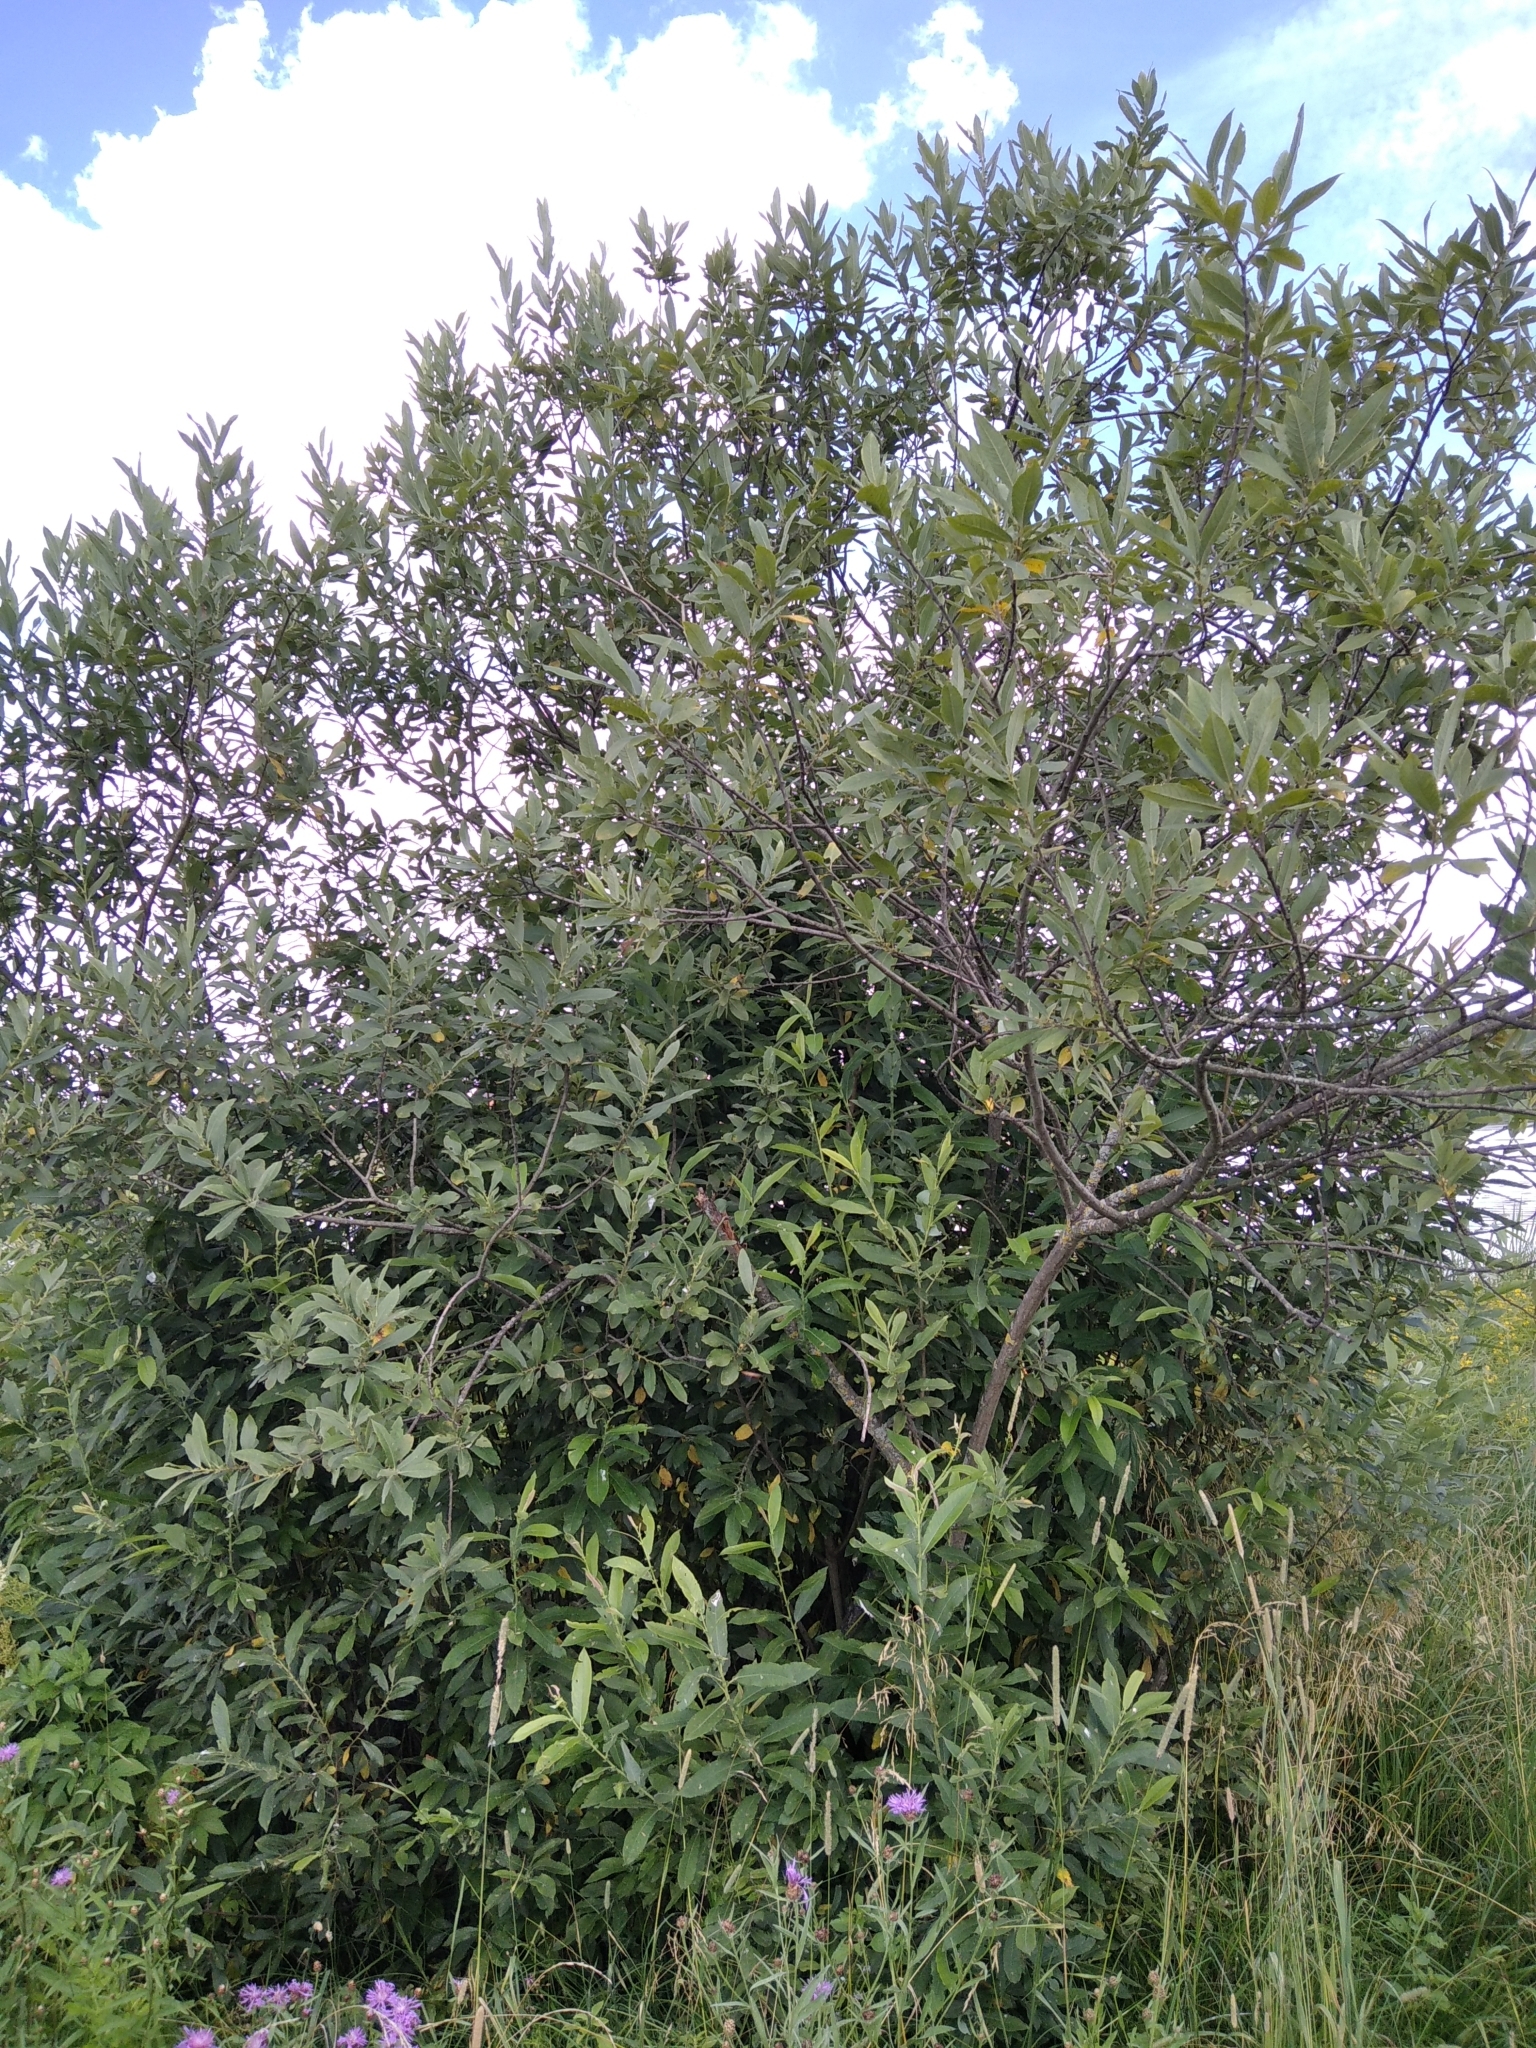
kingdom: Plantae
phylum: Tracheophyta
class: Magnoliopsida
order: Malpighiales
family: Salicaceae
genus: Salix
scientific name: Salix cinerea
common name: Common sallow
